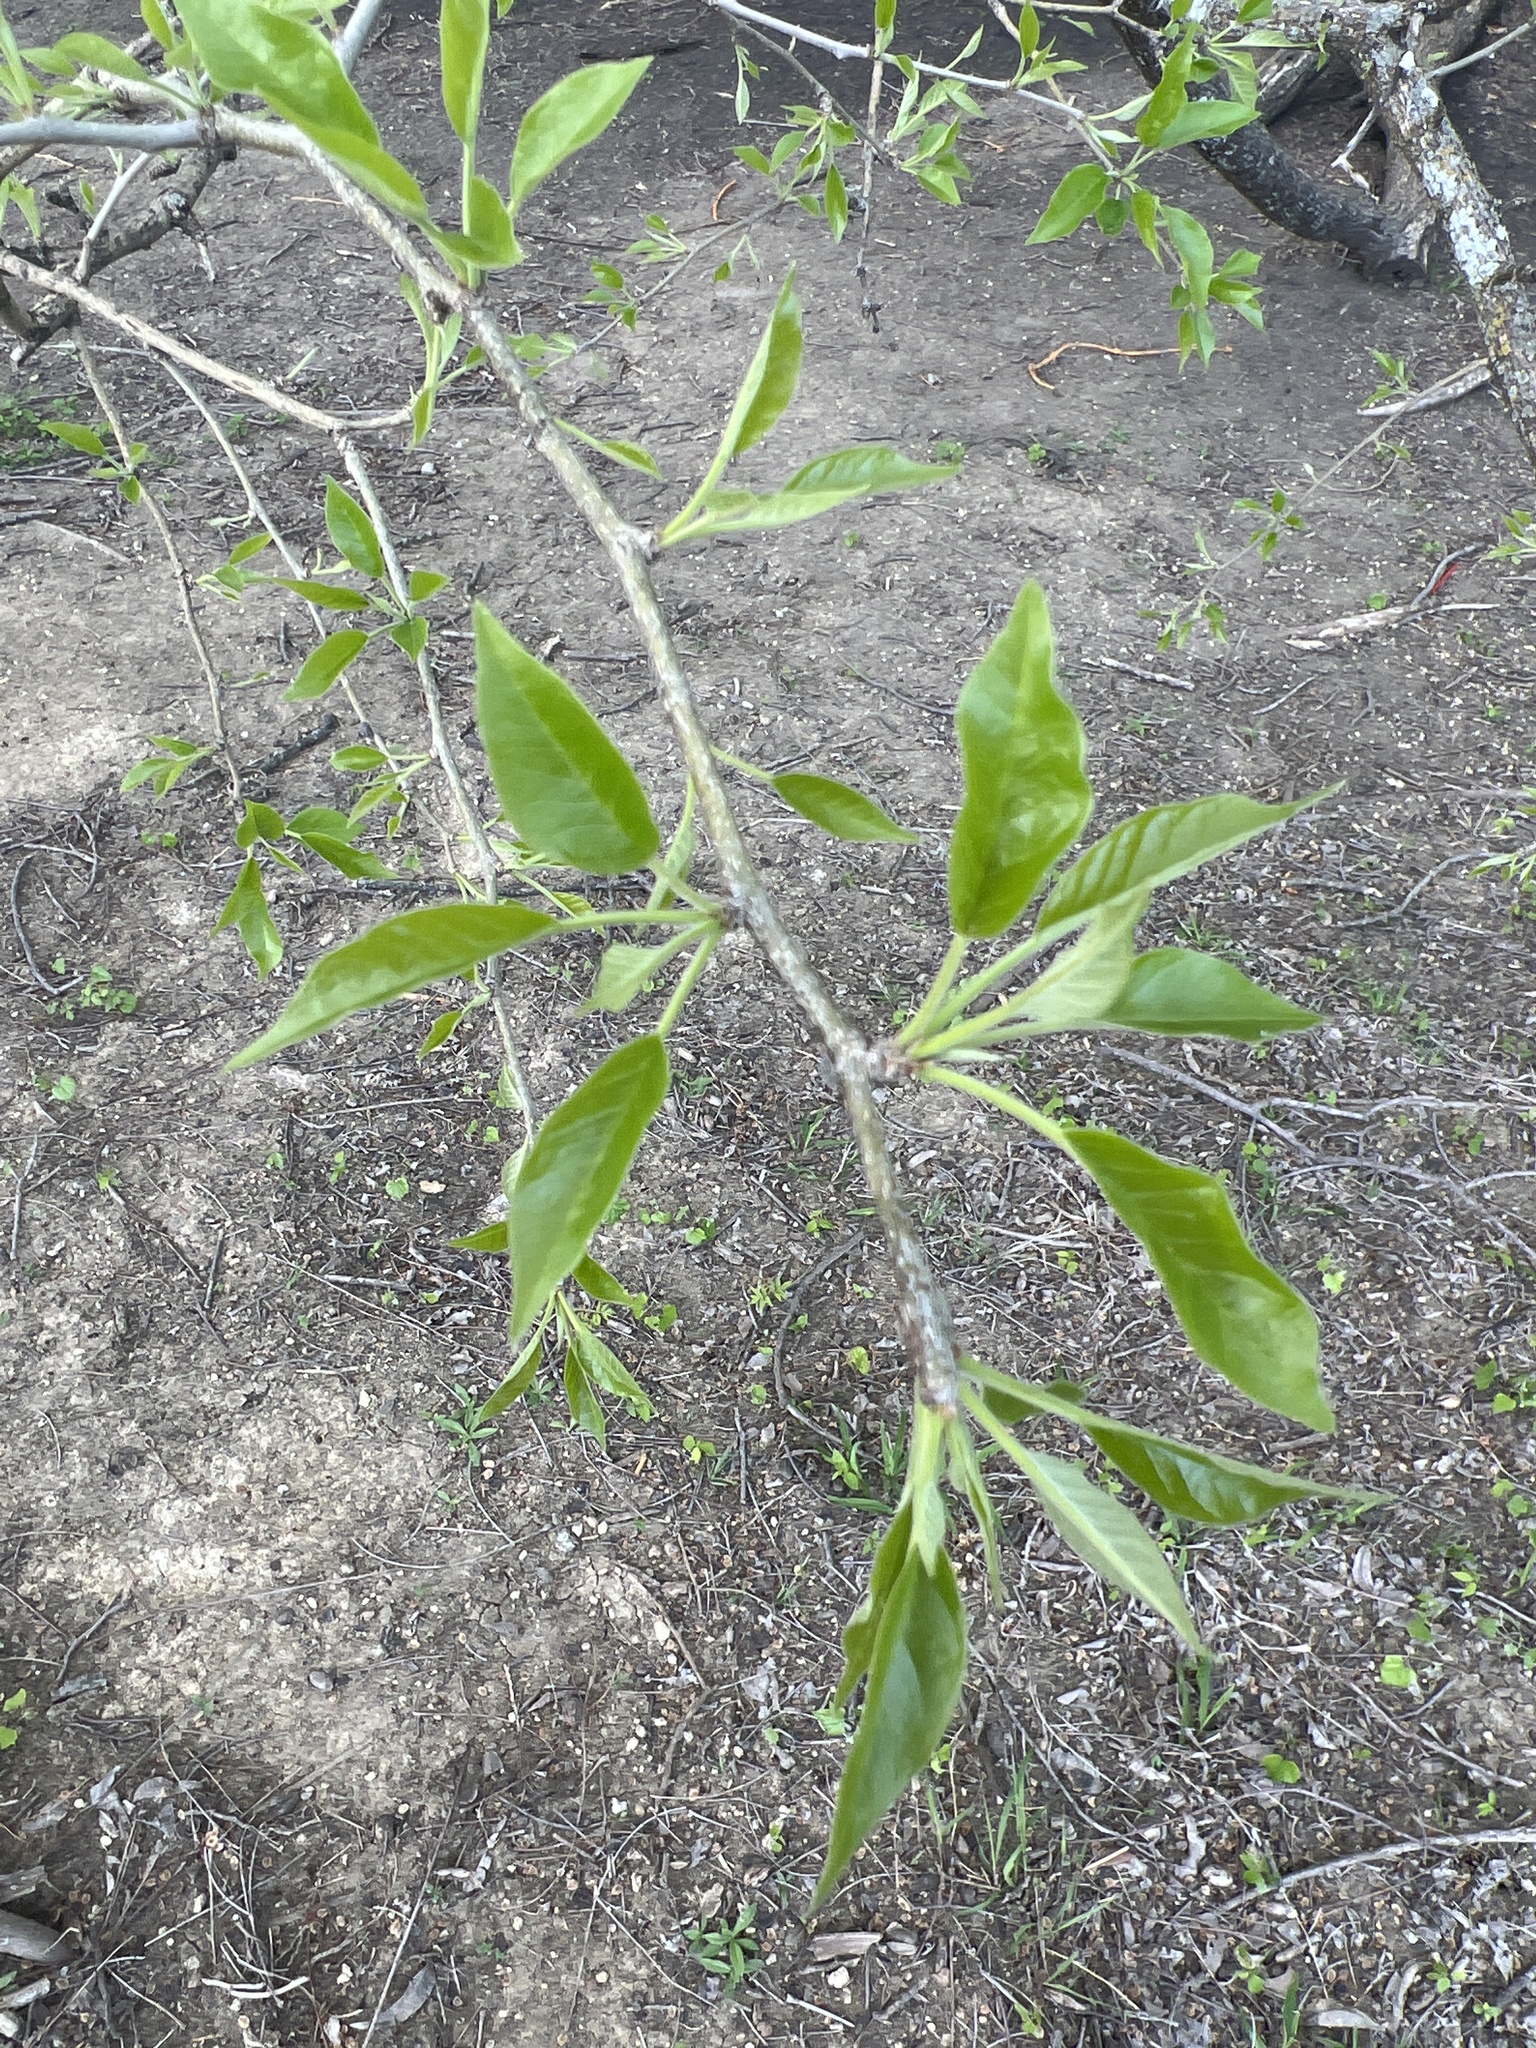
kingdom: Plantae
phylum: Tracheophyta
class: Magnoliopsida
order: Rosales
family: Moraceae
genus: Maclura
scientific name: Maclura pomifera
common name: Osage-orange
